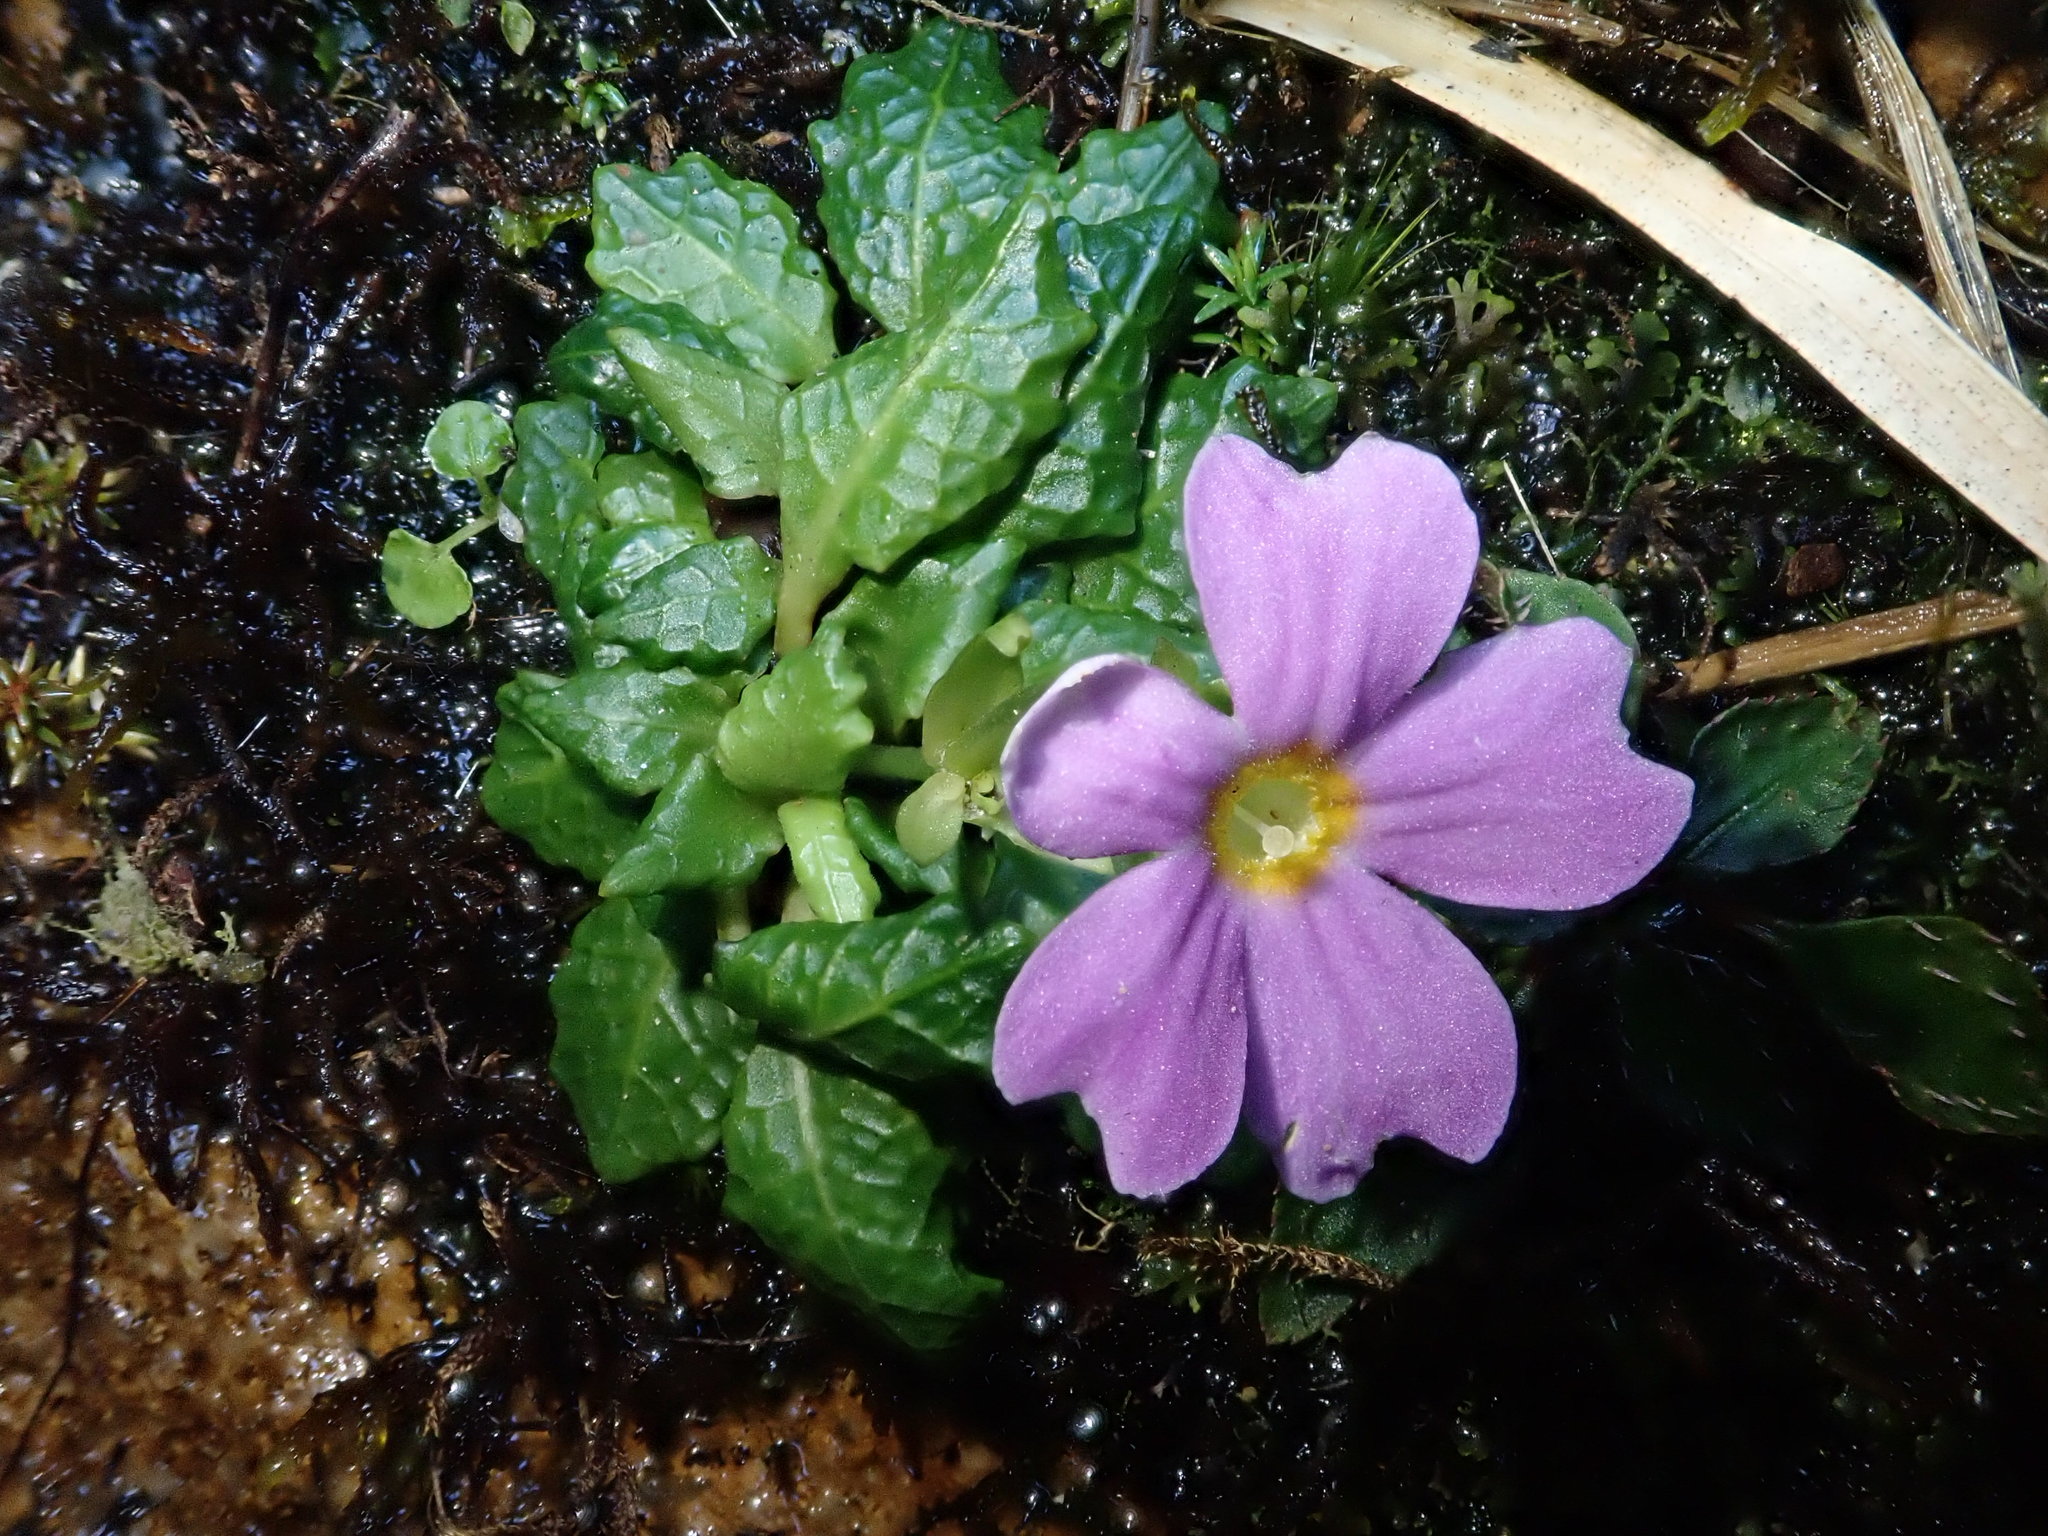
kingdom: Plantae
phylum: Tracheophyta
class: Magnoliopsida
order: Ericales
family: Primulaceae
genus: Primula
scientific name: Primula petelotii
